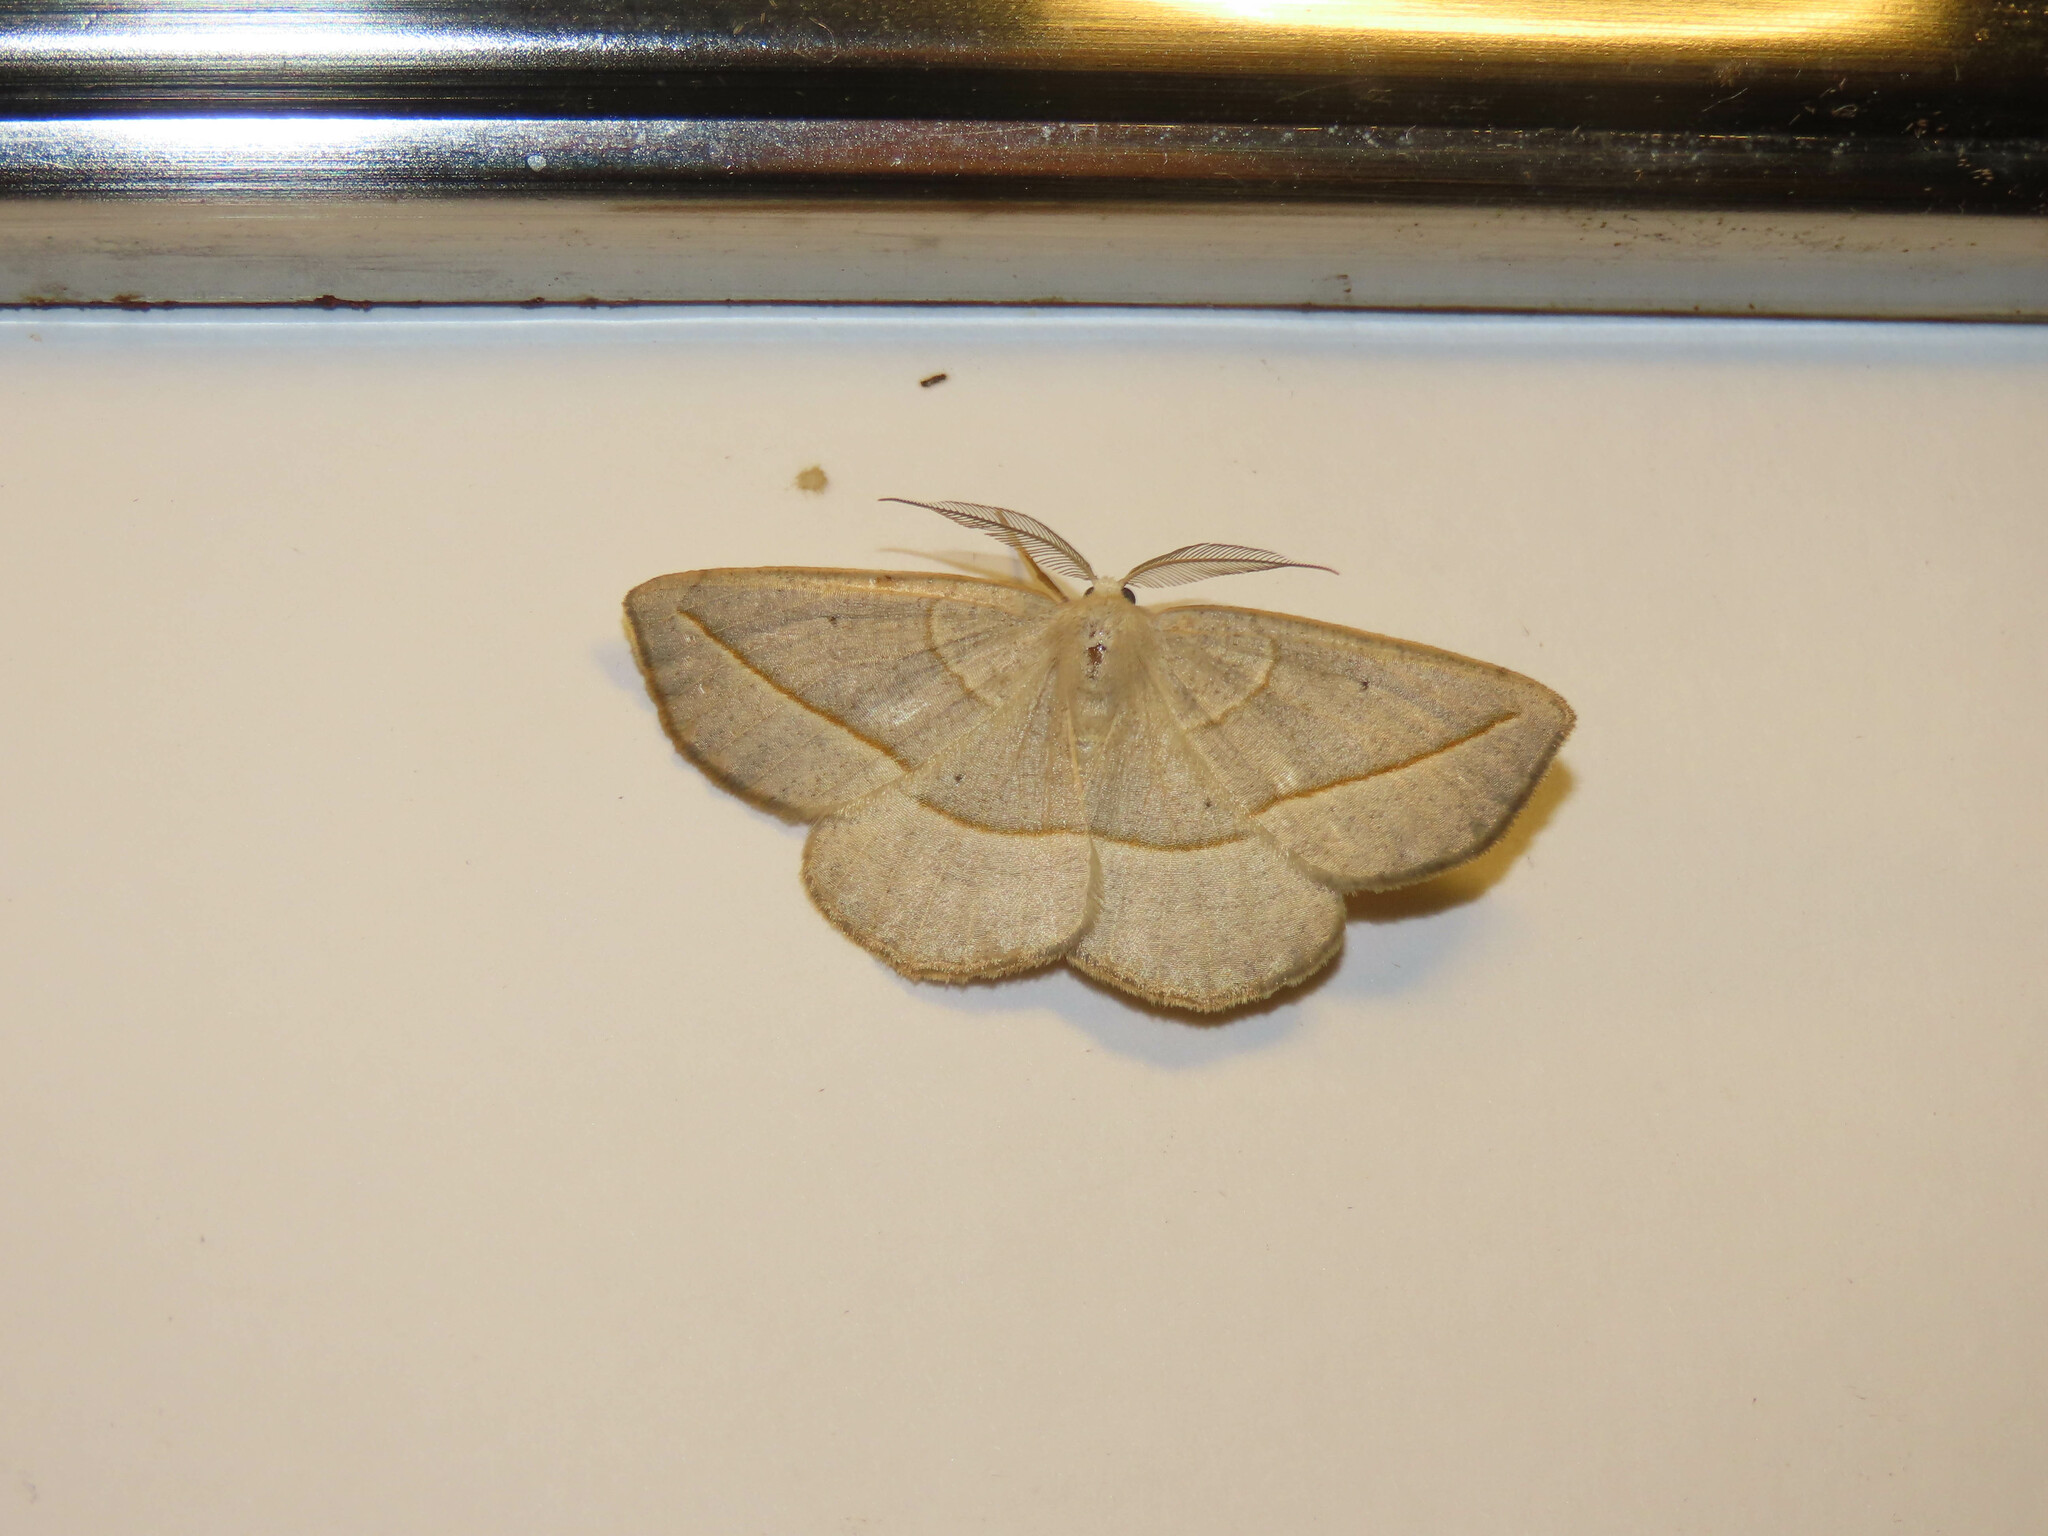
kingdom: Animalia
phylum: Arthropoda
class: Insecta
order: Lepidoptera
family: Geometridae
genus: Eusarca
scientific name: Eusarca confusaria
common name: Confused eusarca
